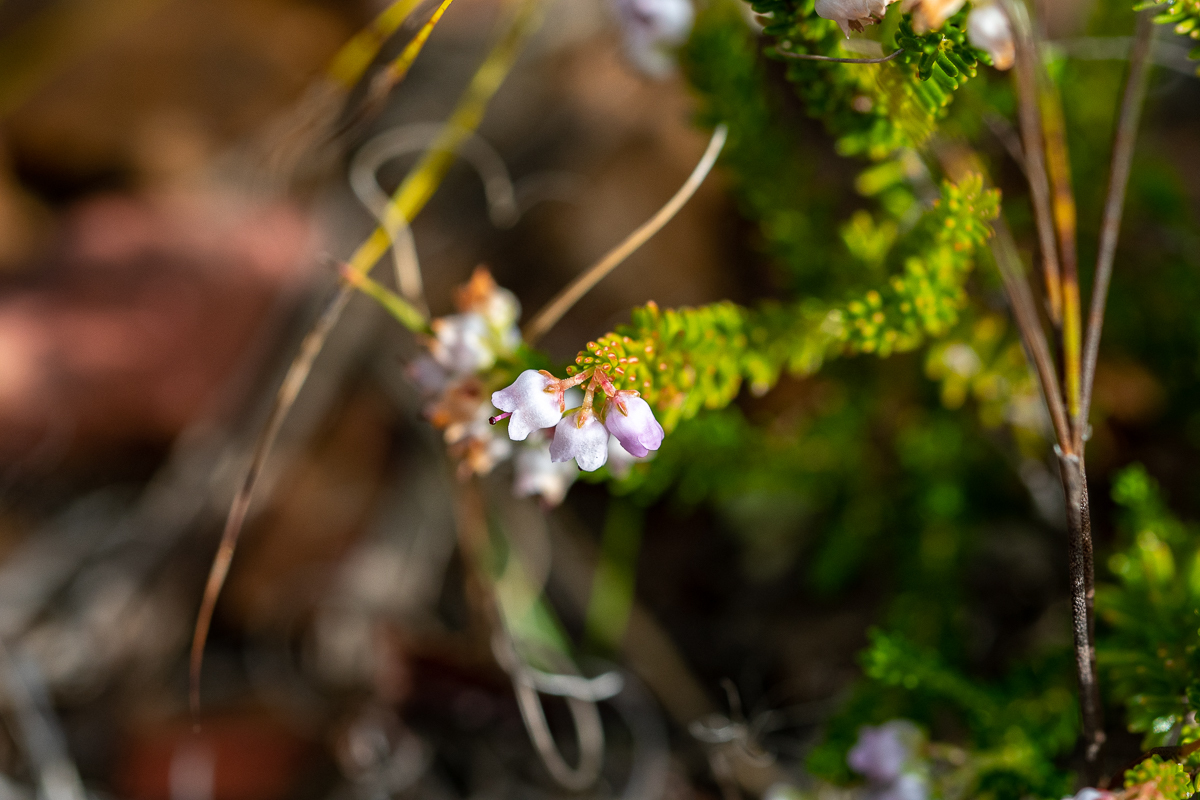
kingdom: Plantae
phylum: Tracheophyta
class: Magnoliopsida
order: Ericales
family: Ericaceae
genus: Erica
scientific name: Erica curvirostris
